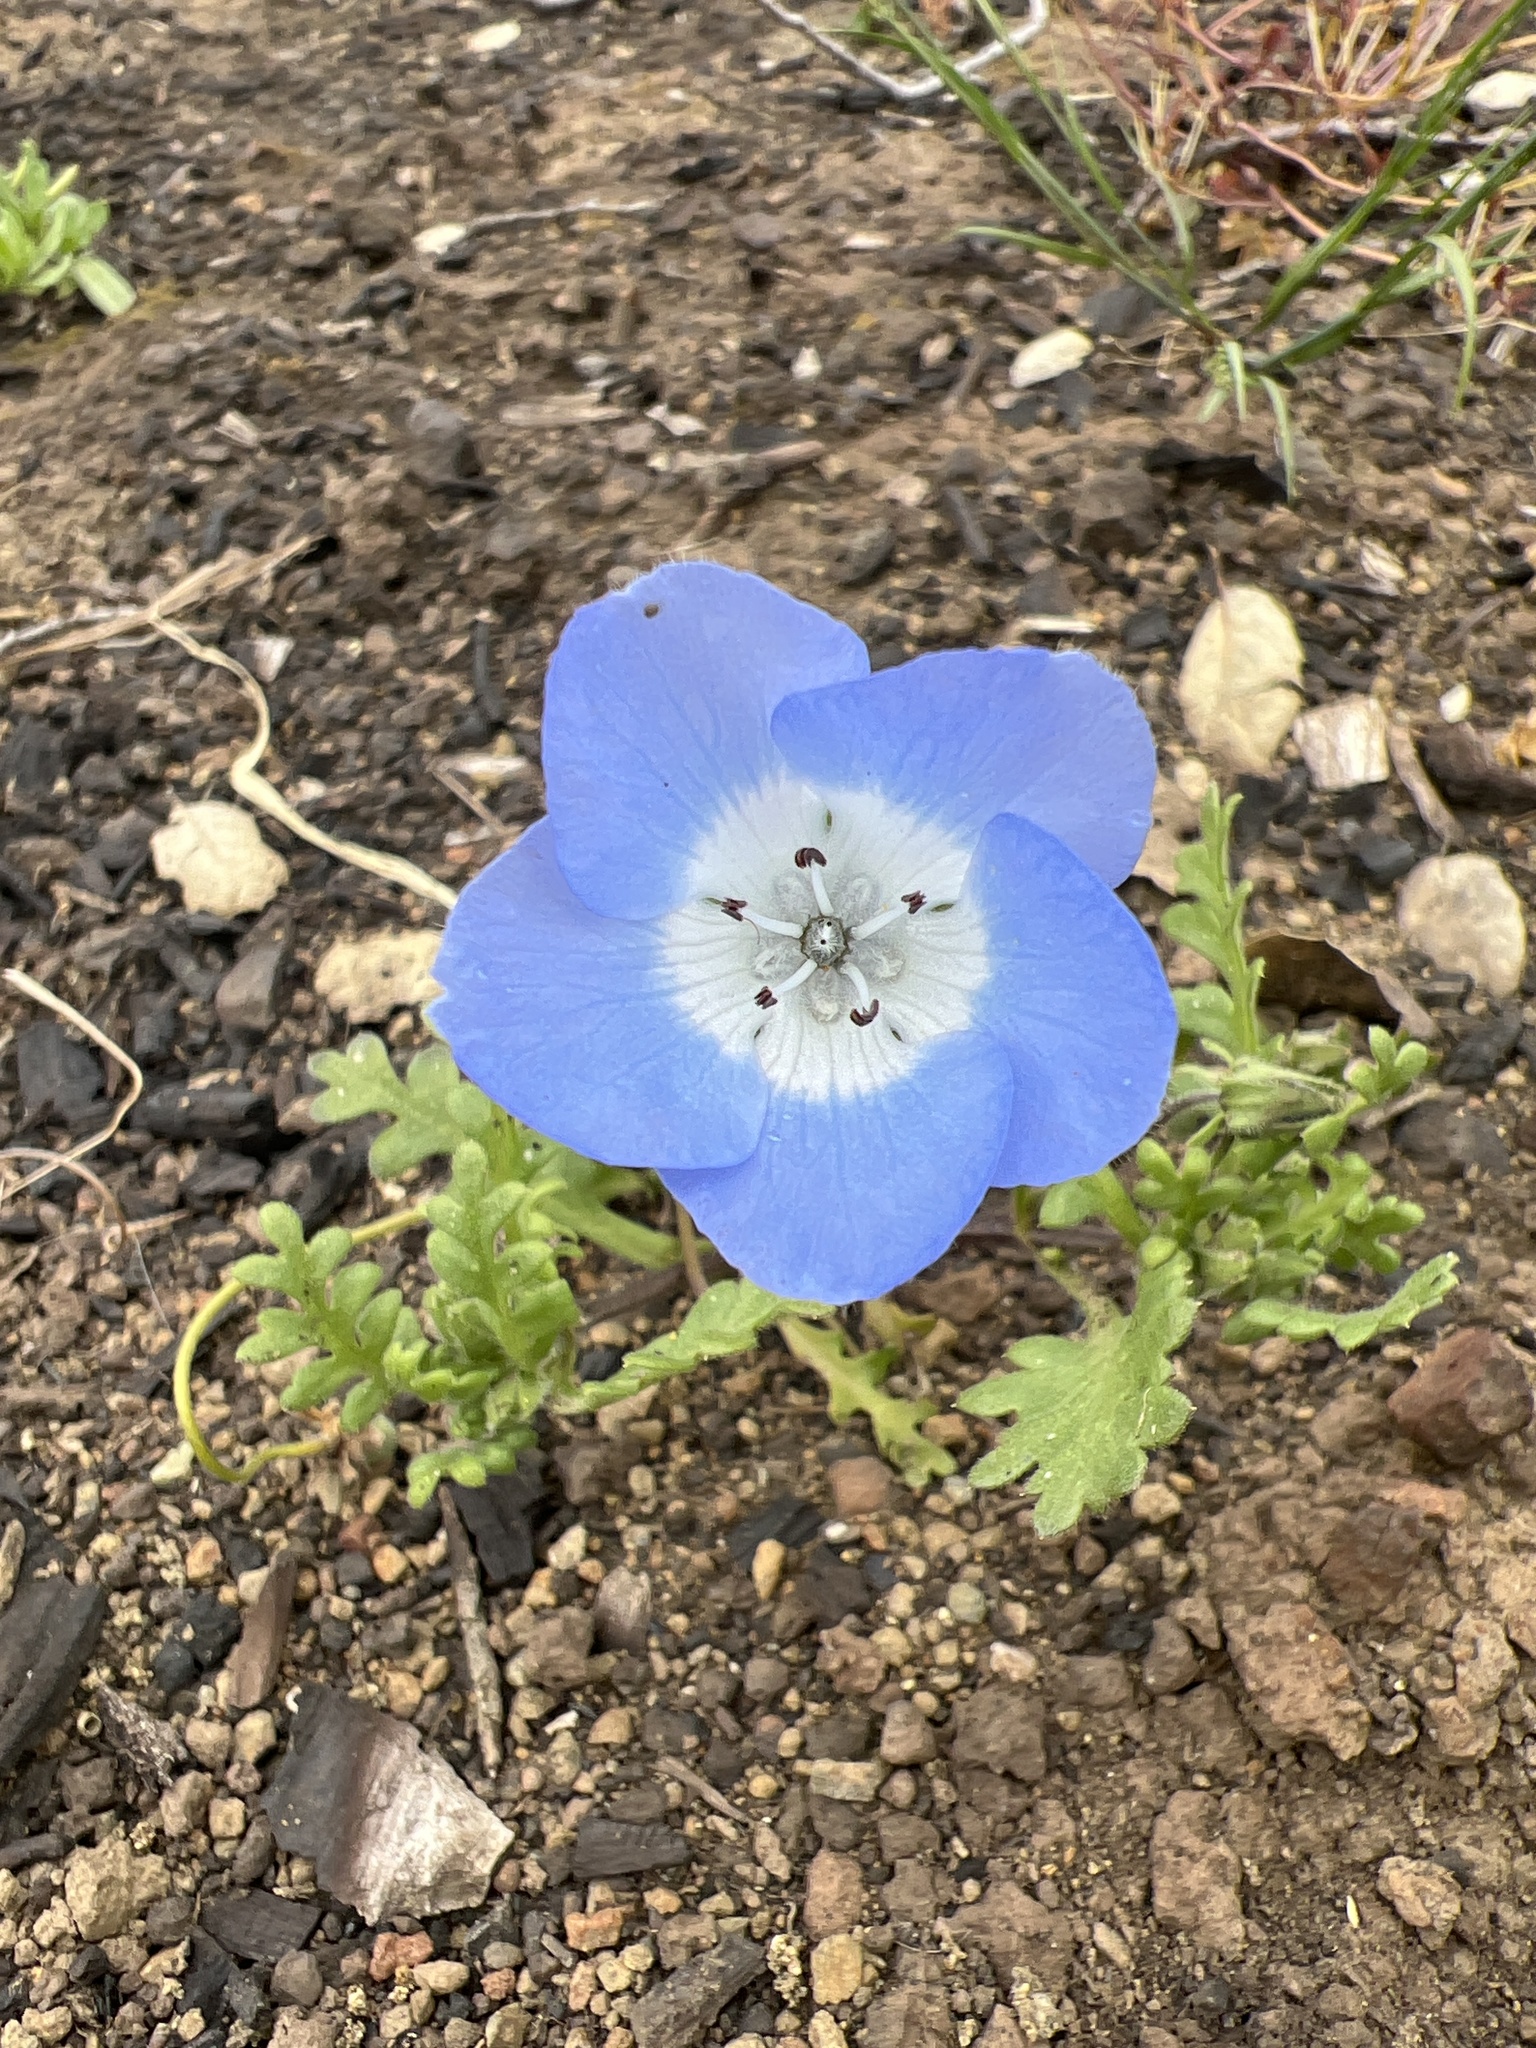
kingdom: Plantae
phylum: Tracheophyta
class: Magnoliopsida
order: Boraginales
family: Hydrophyllaceae
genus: Nemophila
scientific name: Nemophila menziesii
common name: Baby's-blue-eyes
